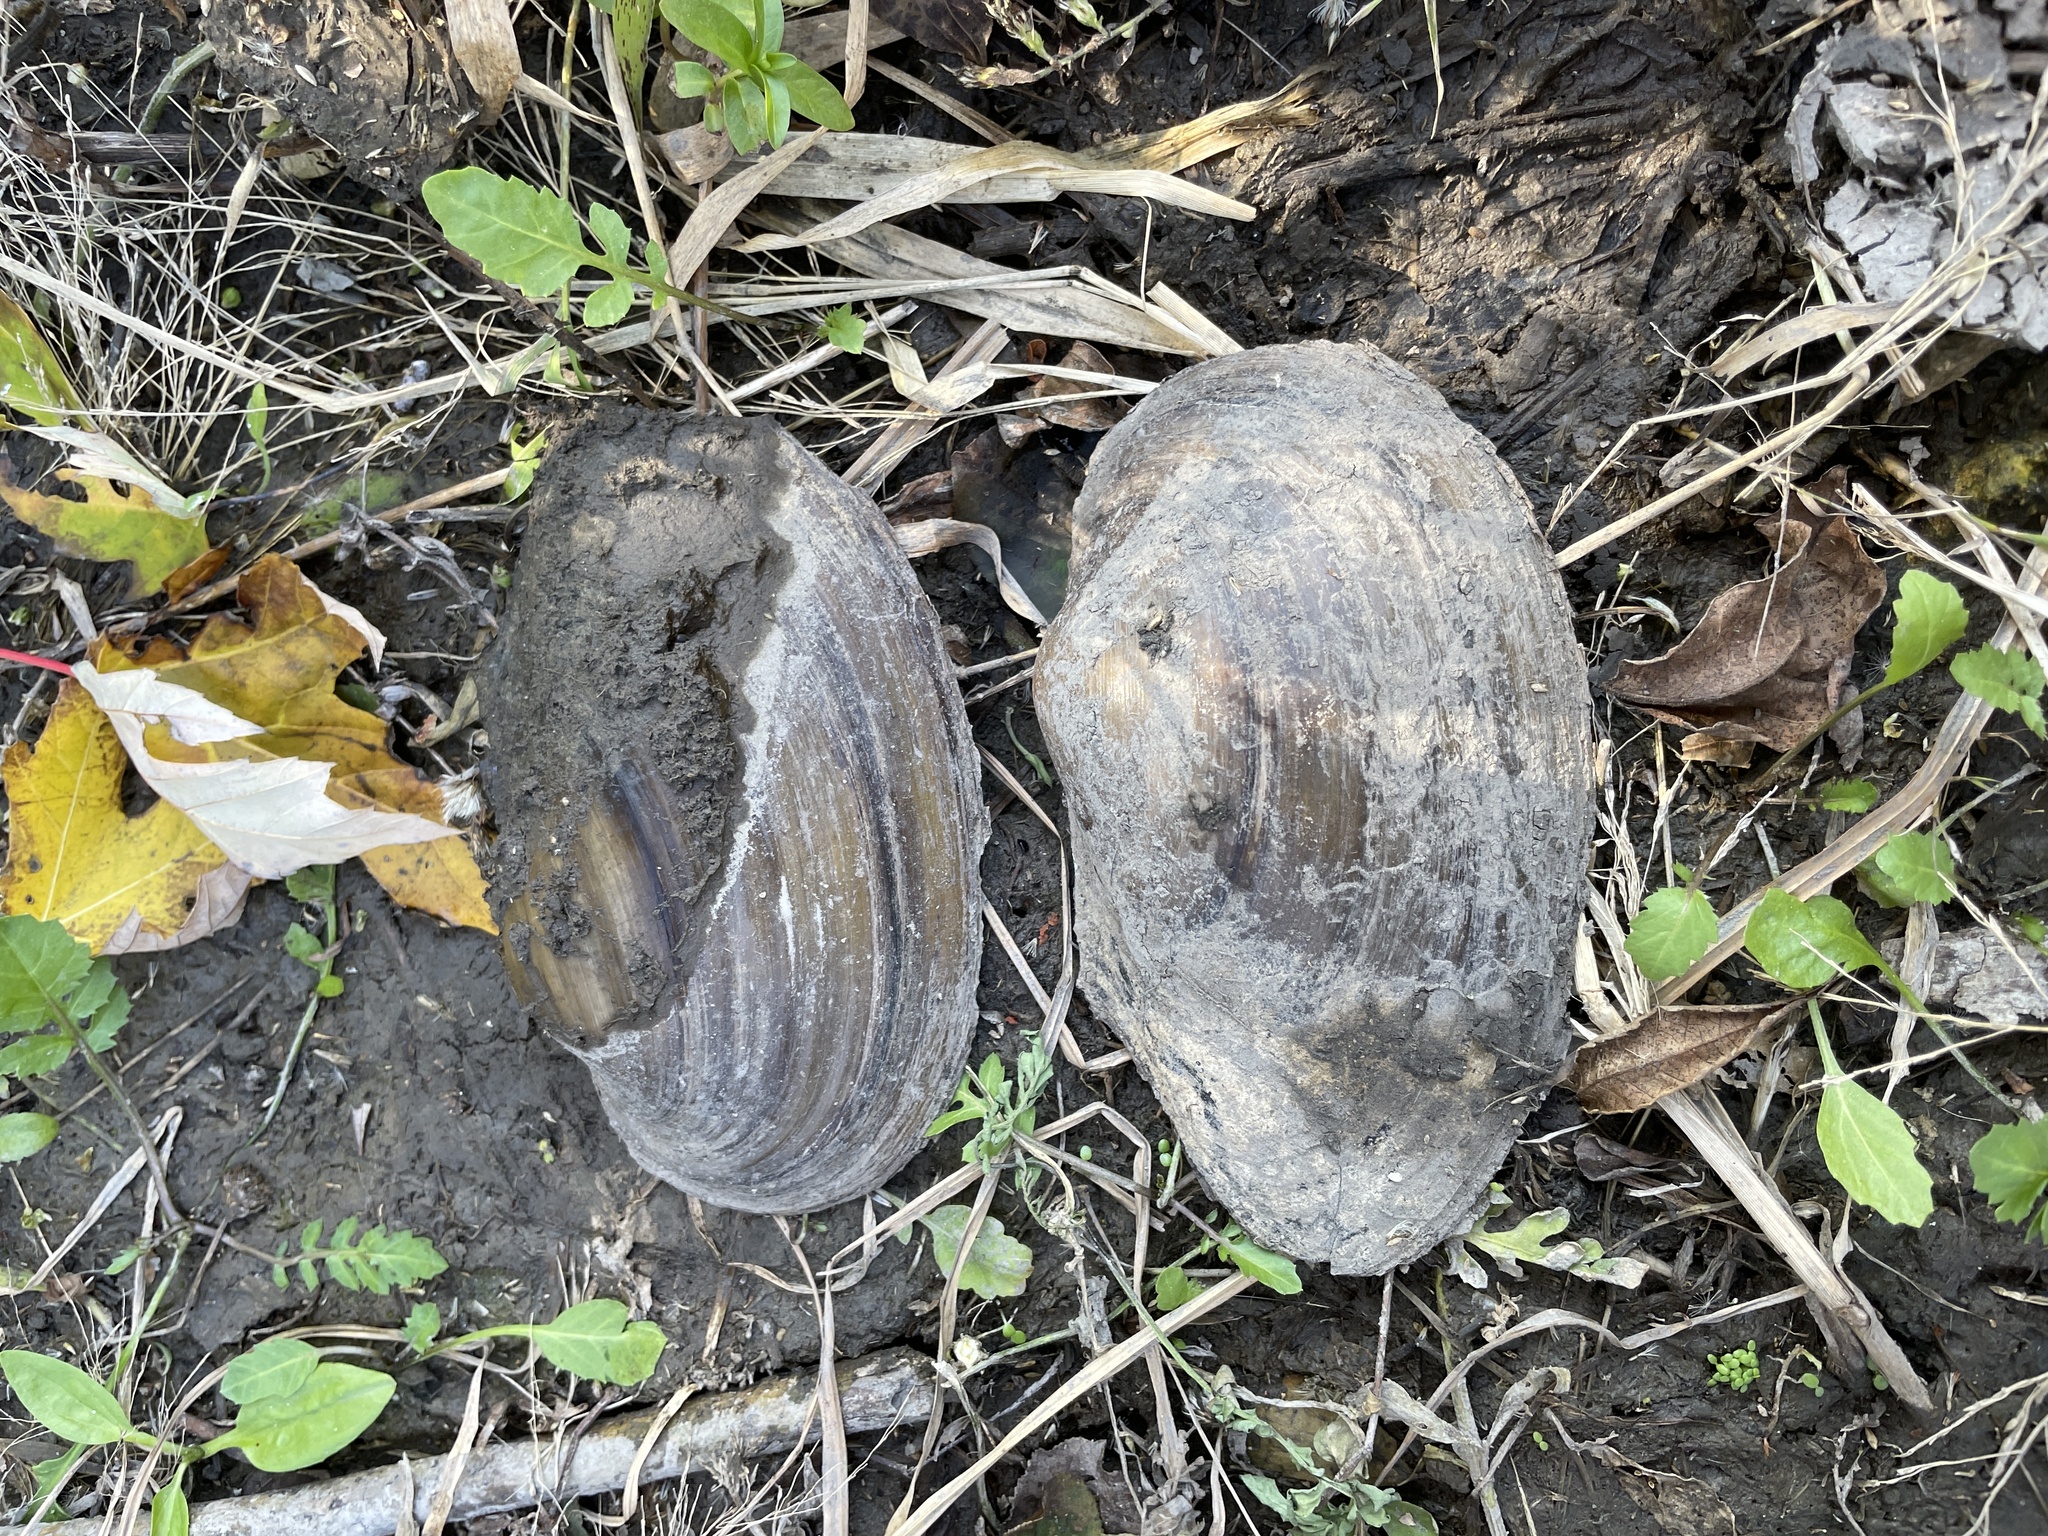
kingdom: Animalia
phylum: Mollusca
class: Bivalvia
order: Unionida
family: Unionidae
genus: Pyganodon
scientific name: Pyganodon grandis
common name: Giant floater
